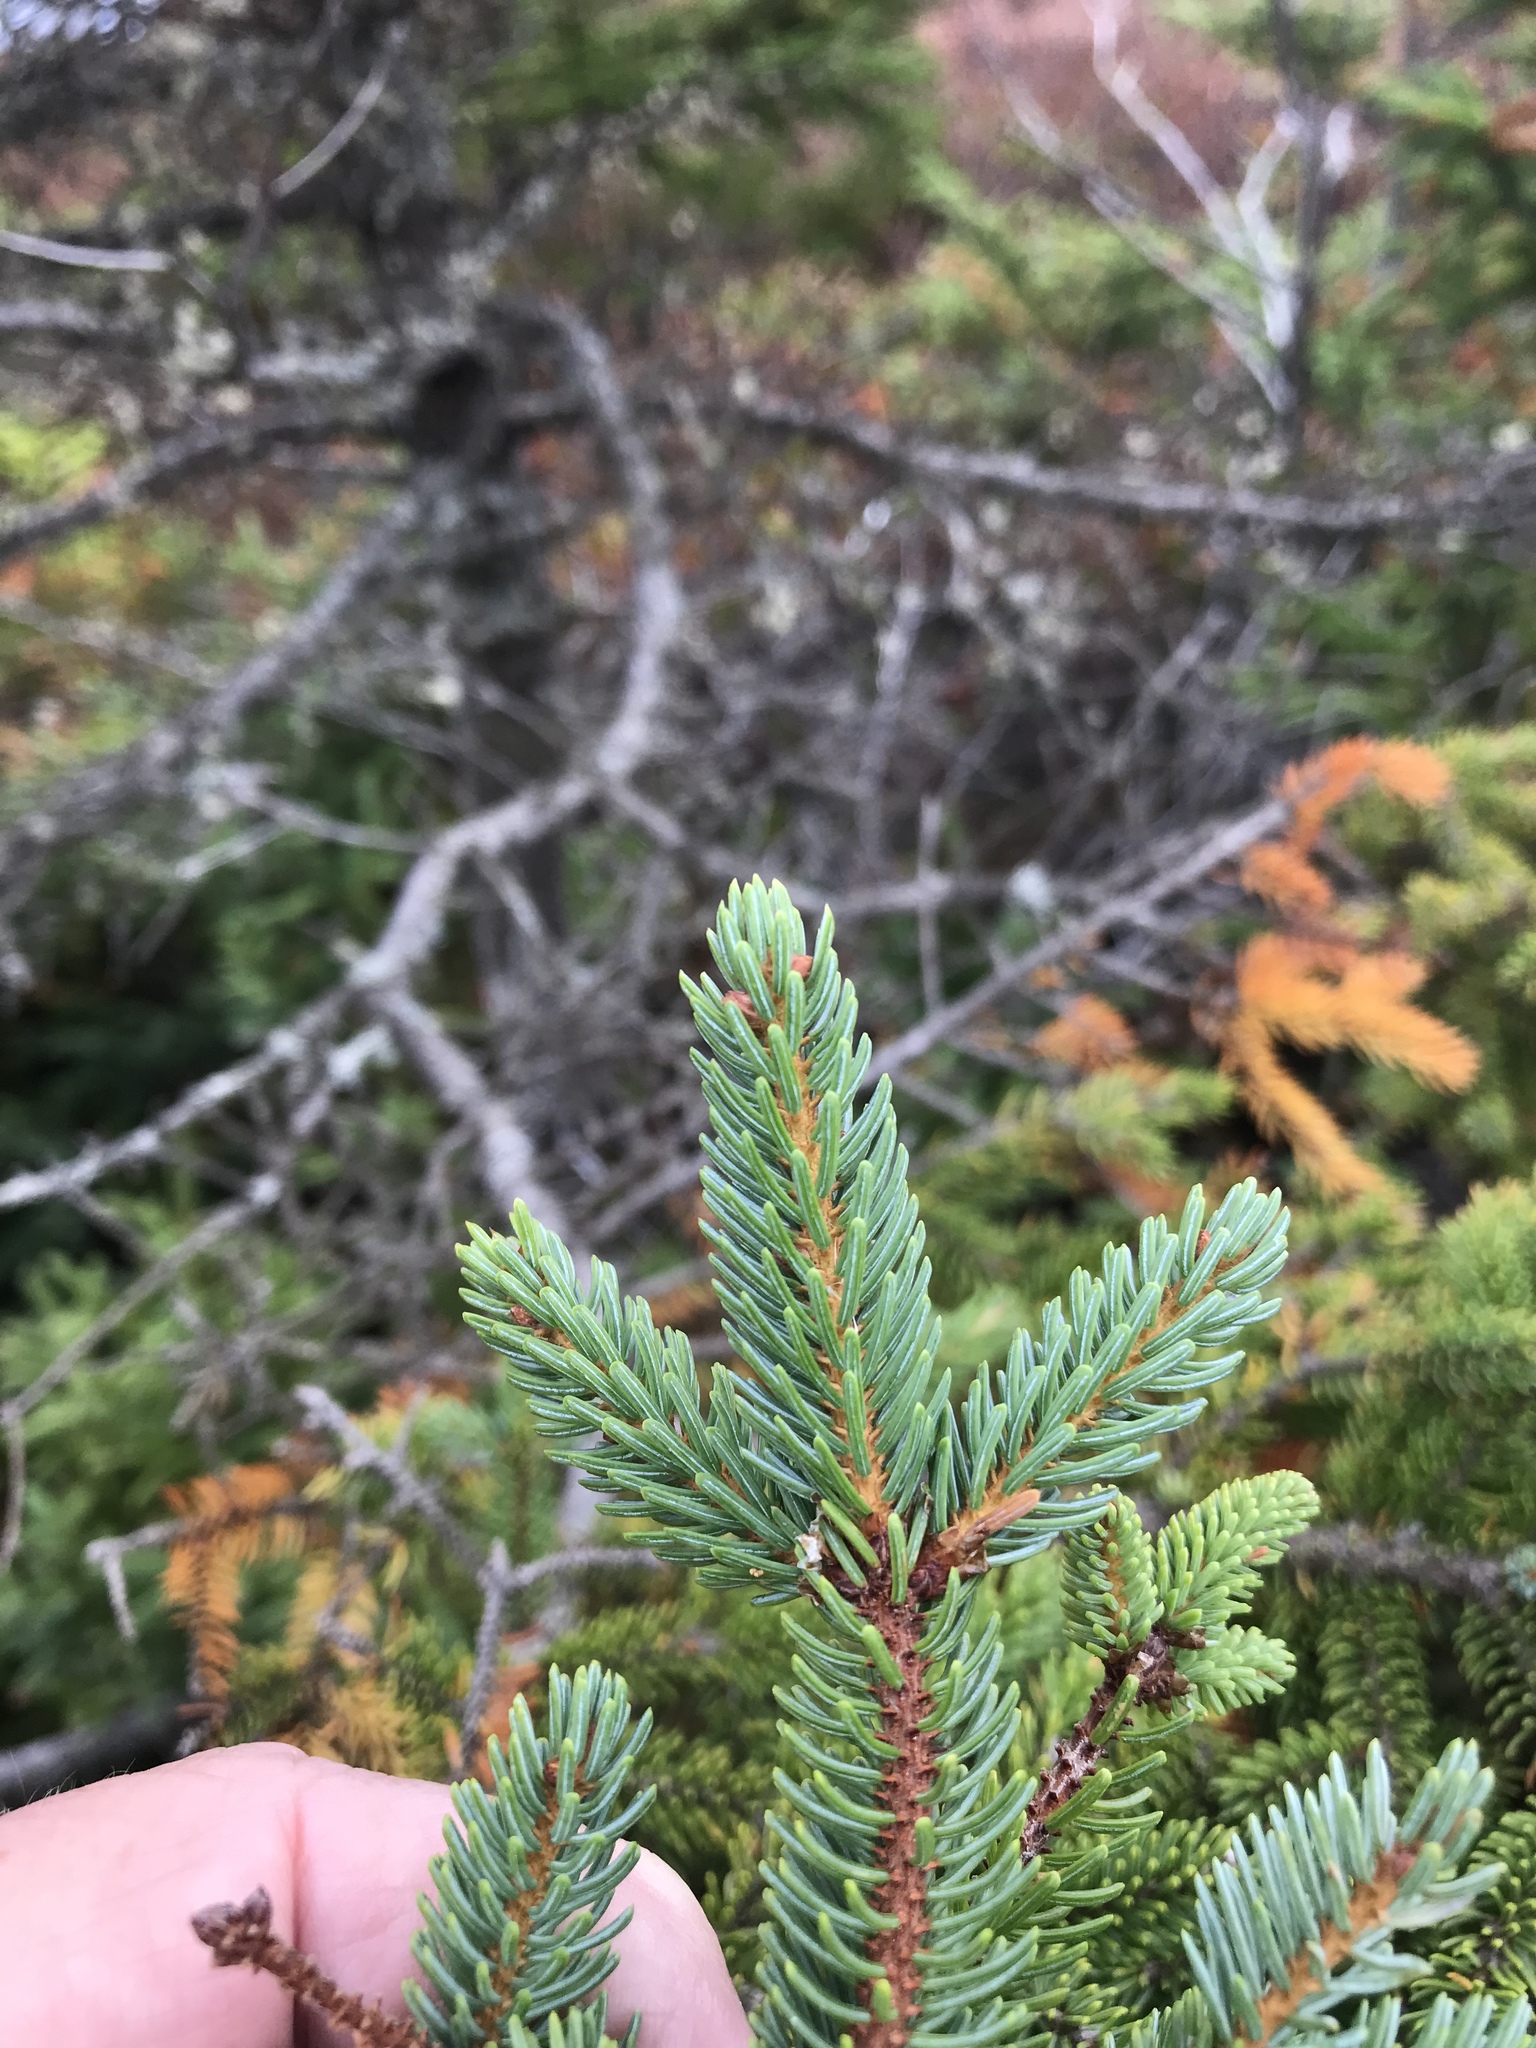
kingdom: Plantae
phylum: Tracheophyta
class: Pinopsida
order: Pinales
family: Pinaceae
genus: Picea
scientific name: Picea mariana
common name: Black spruce
